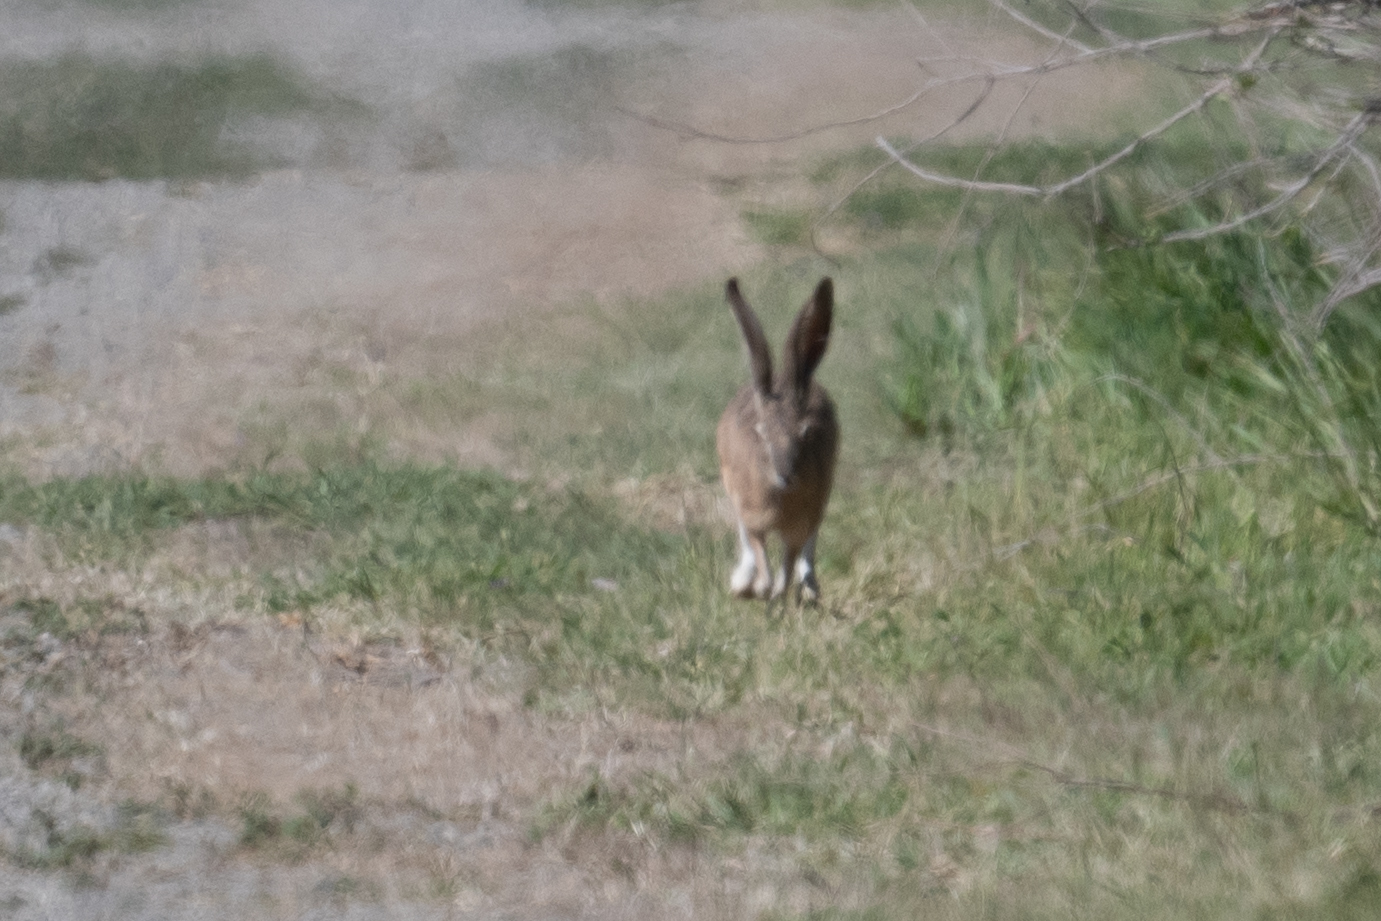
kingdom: Animalia
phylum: Chordata
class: Mammalia
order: Lagomorpha
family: Leporidae
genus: Lepus
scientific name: Lepus californicus
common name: Black-tailed jackrabbit
